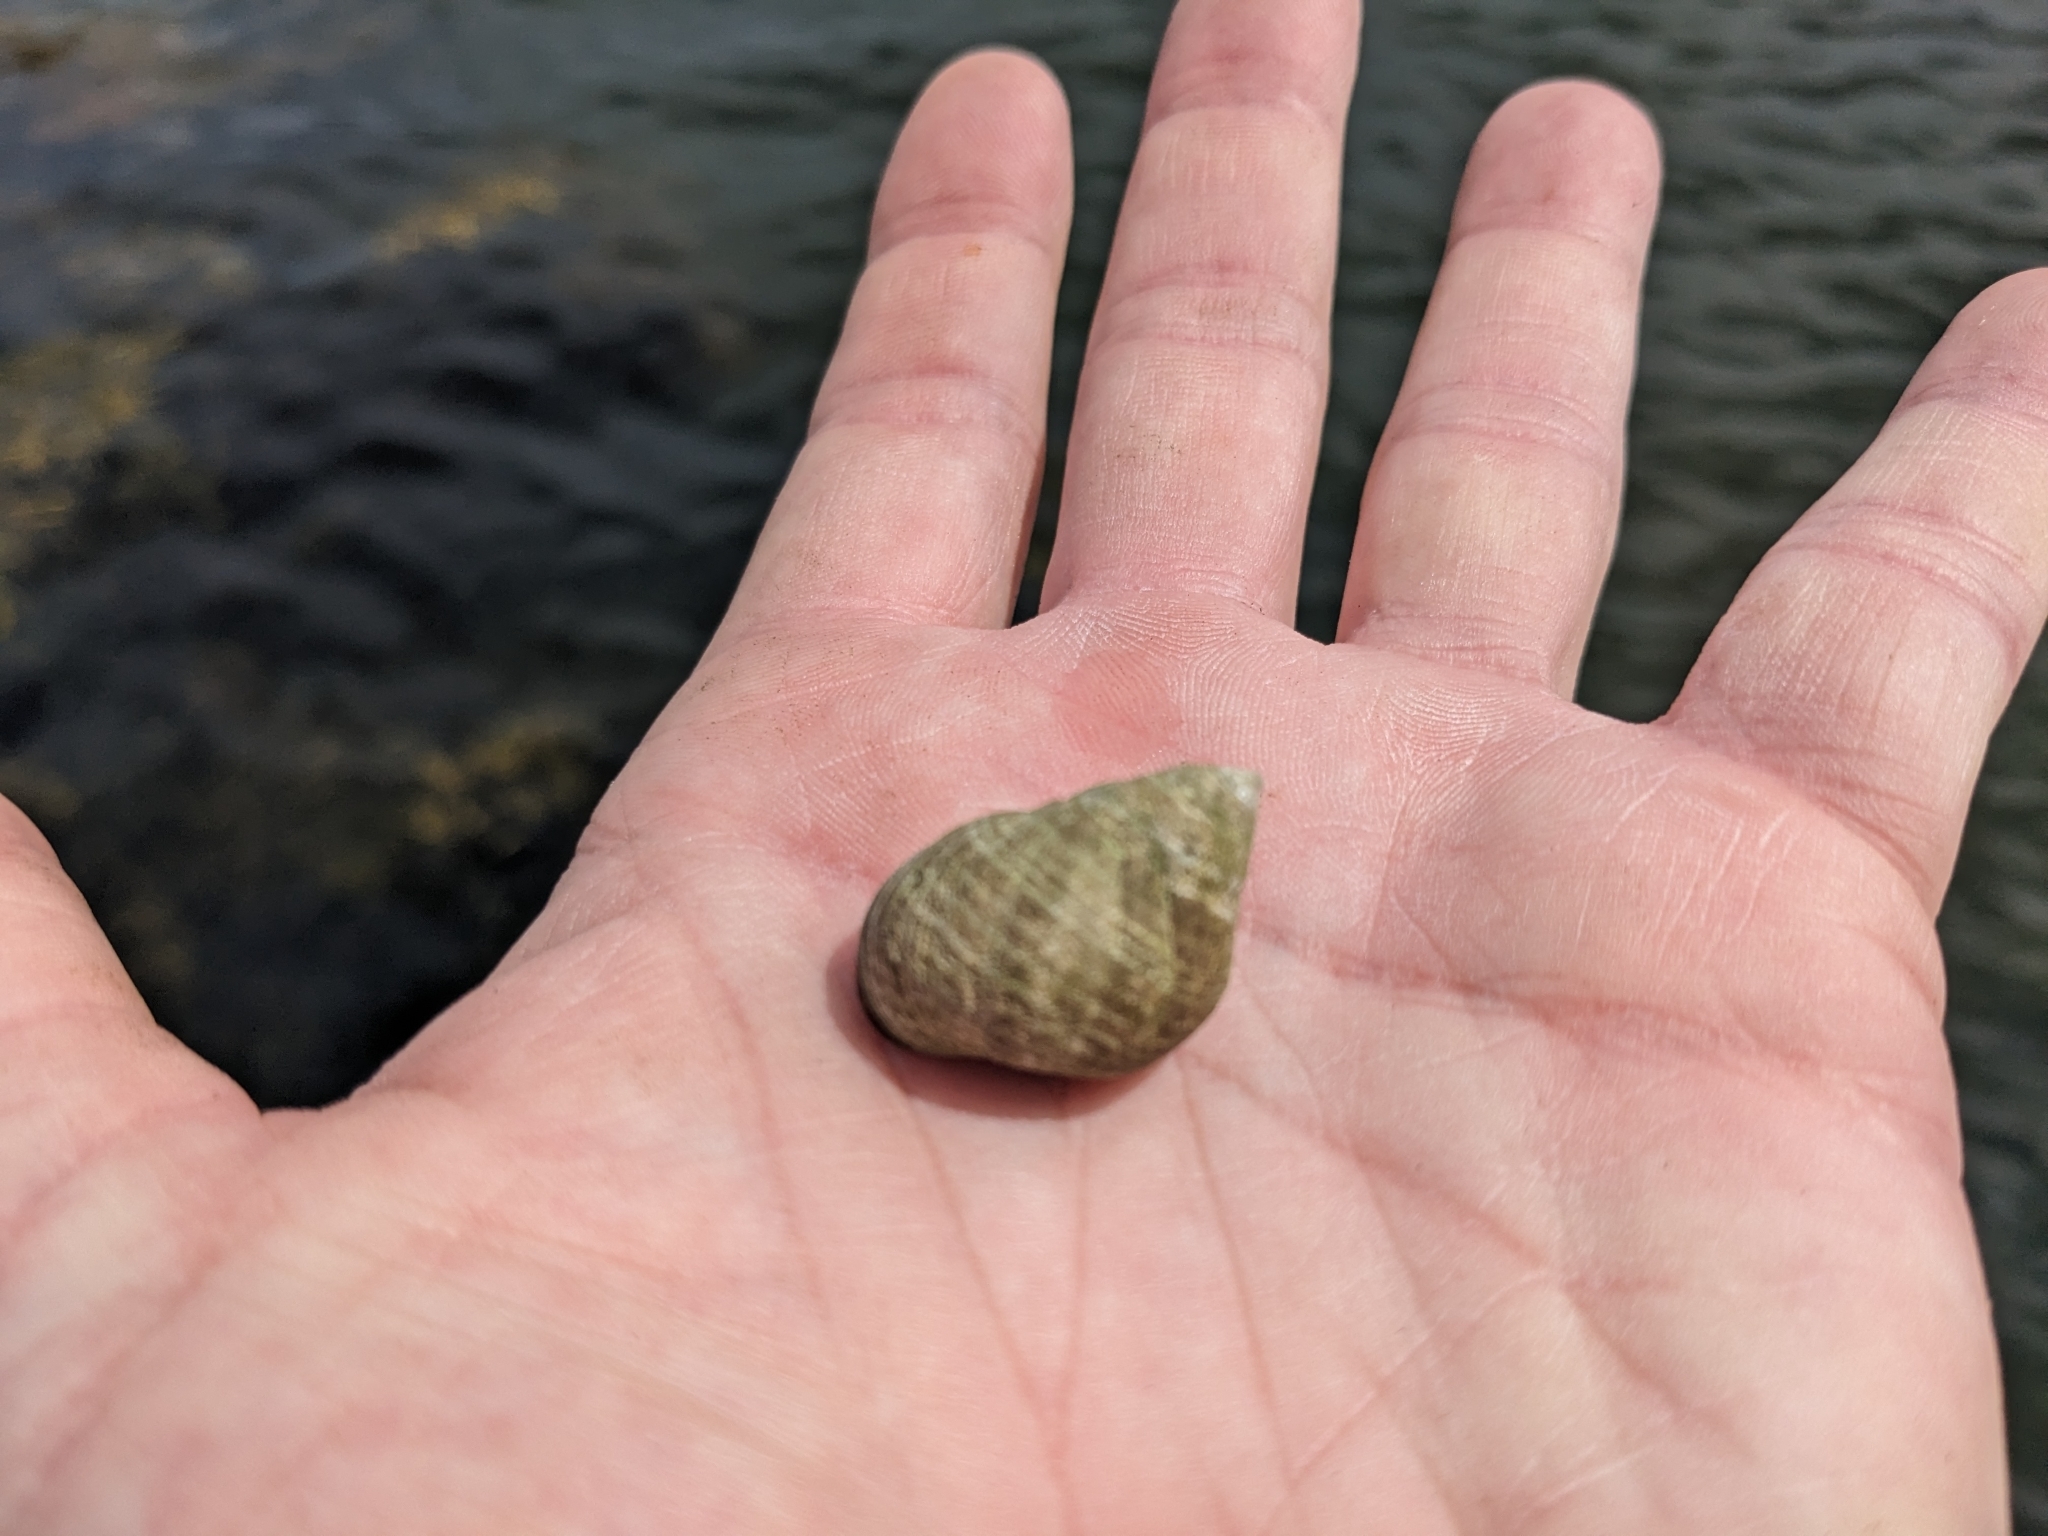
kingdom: Animalia
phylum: Mollusca
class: Gastropoda
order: Littorinimorpha
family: Littorinidae
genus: Littorina
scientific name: Littorina littorea
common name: Common periwinkle
